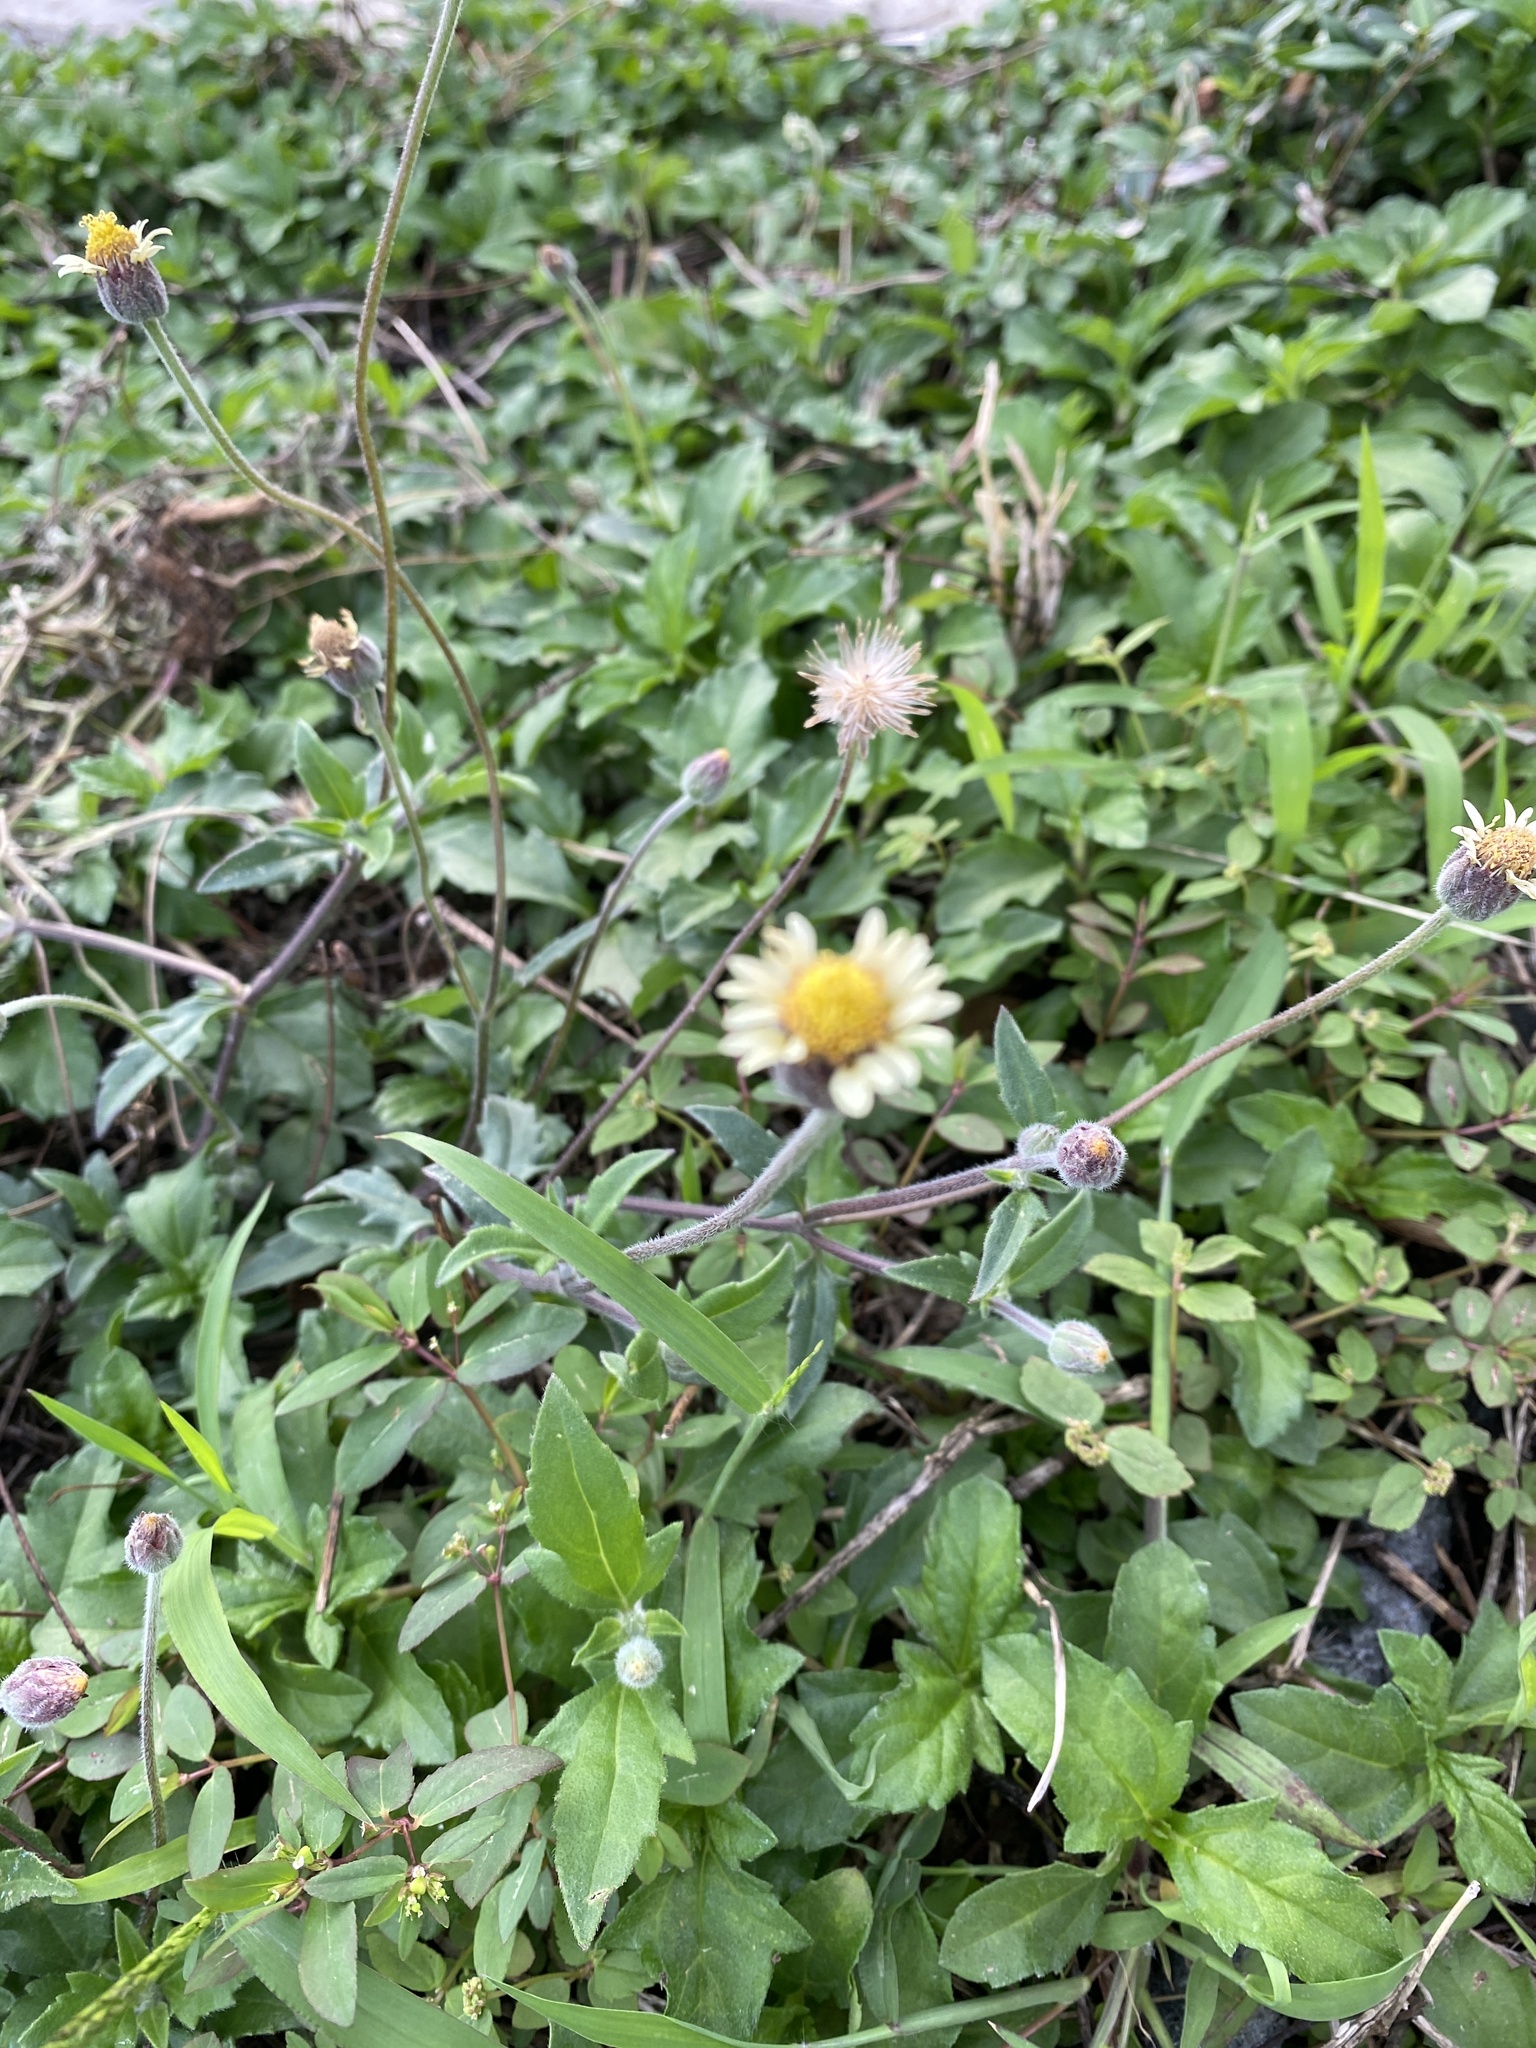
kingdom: Plantae
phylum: Tracheophyta
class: Magnoliopsida
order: Asterales
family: Asteraceae
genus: Tridax
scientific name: Tridax procumbens
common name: Coatbuttons
